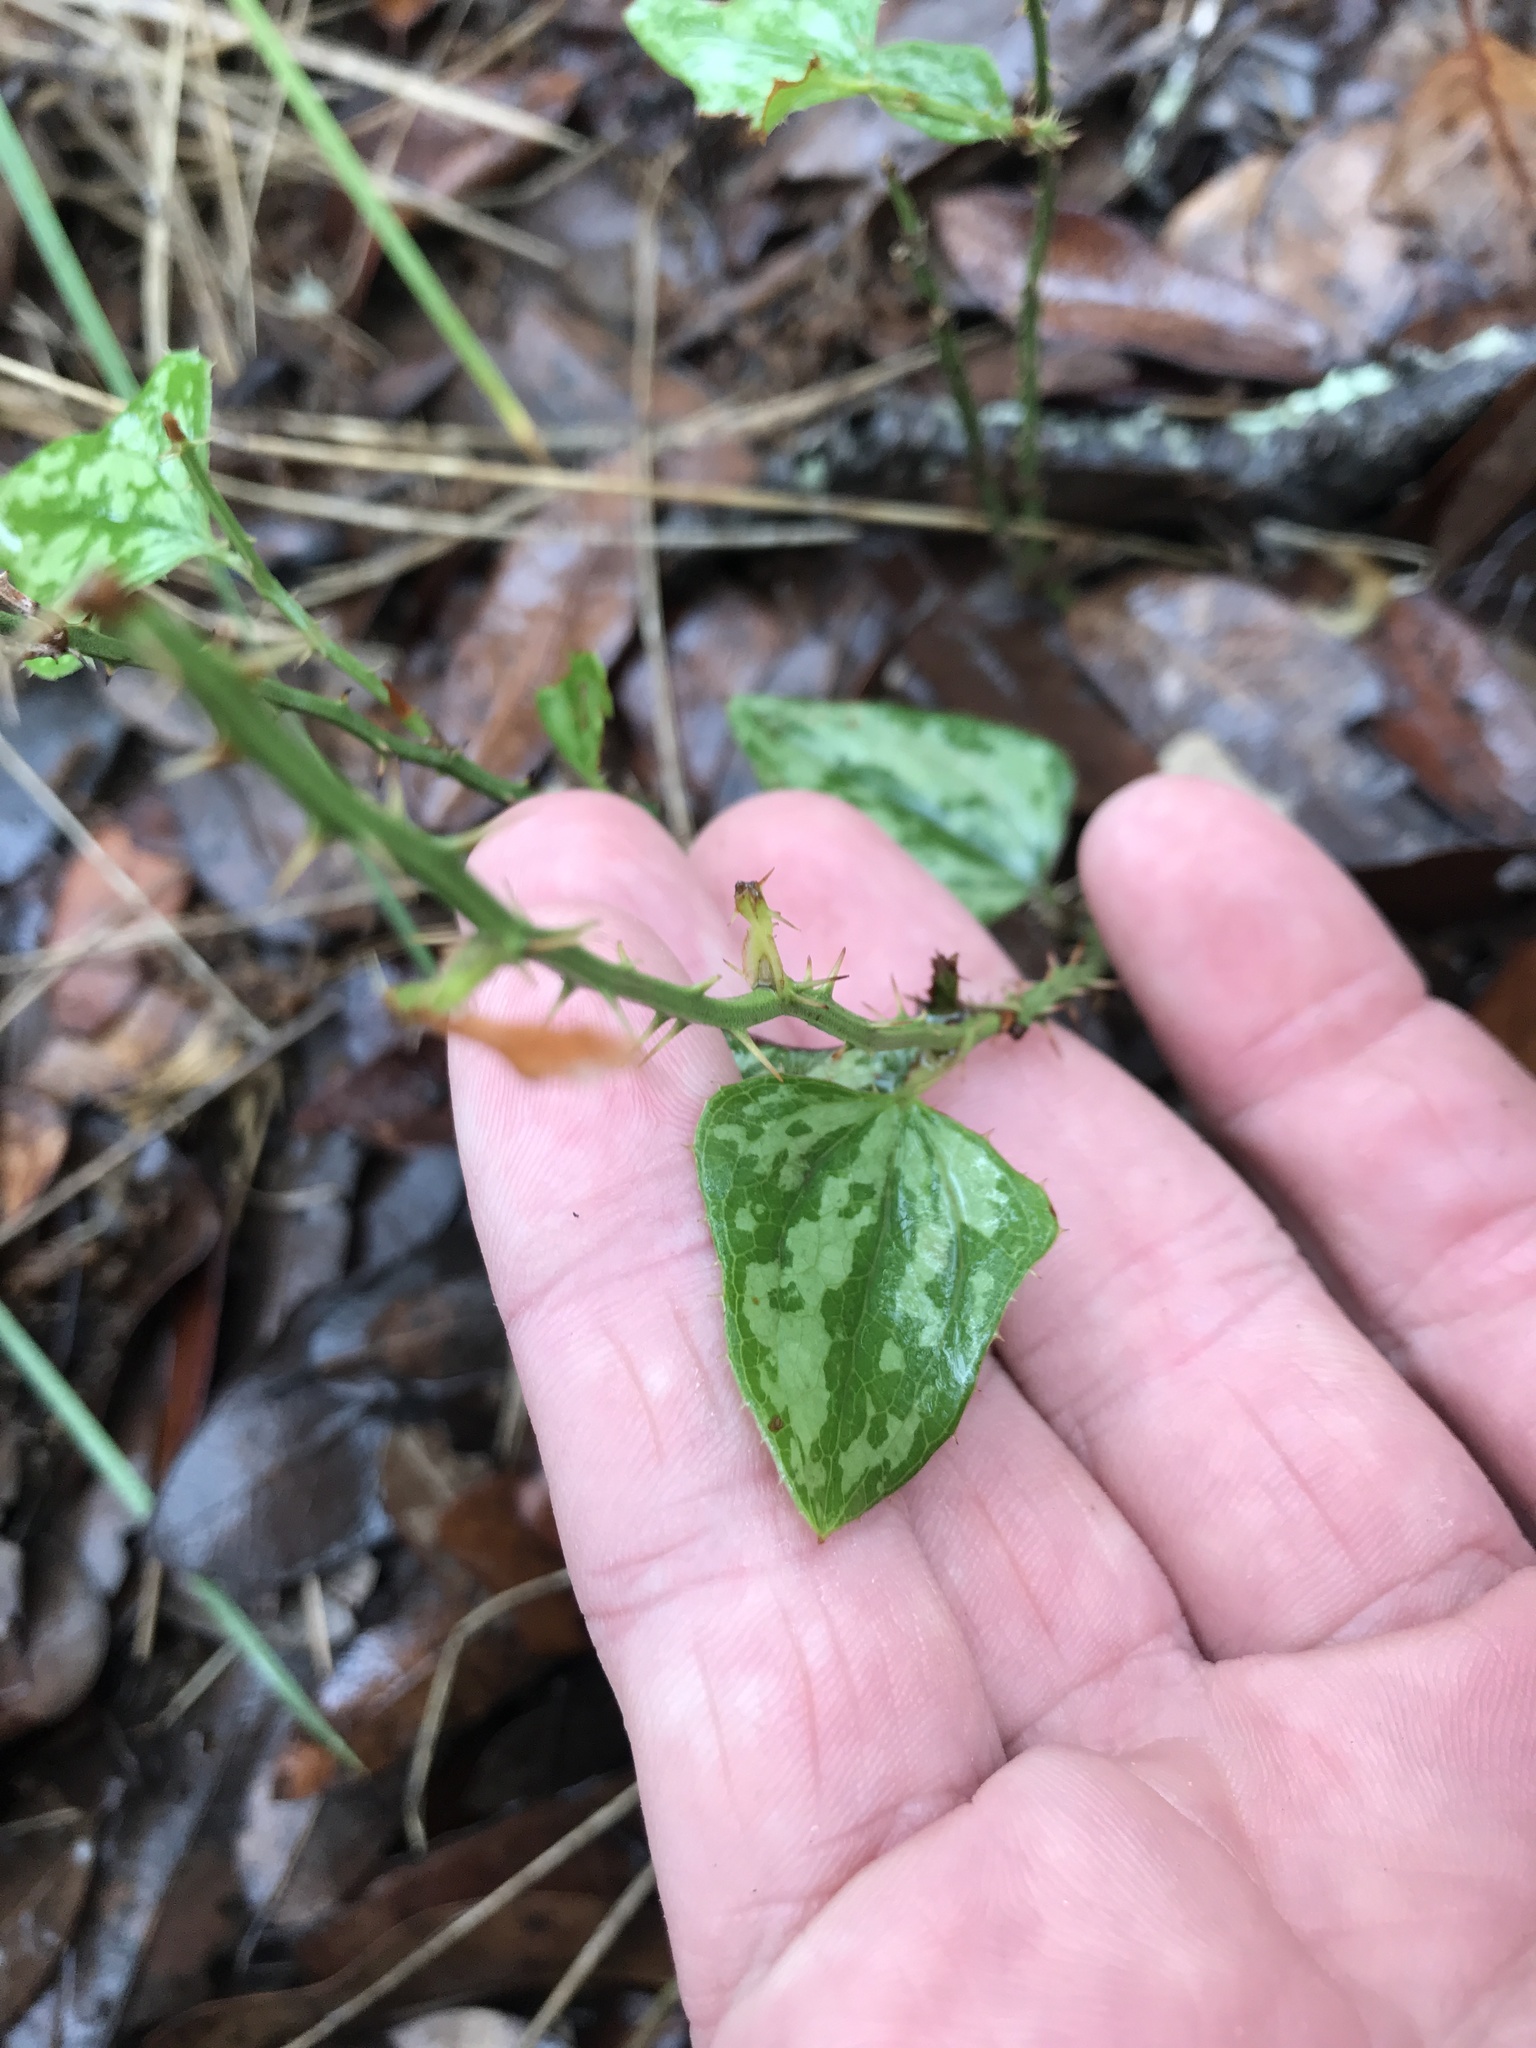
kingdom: Plantae
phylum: Tracheophyta
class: Liliopsida
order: Liliales
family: Smilacaceae
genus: Smilax
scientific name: Smilax bona-nox
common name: Catbrier
